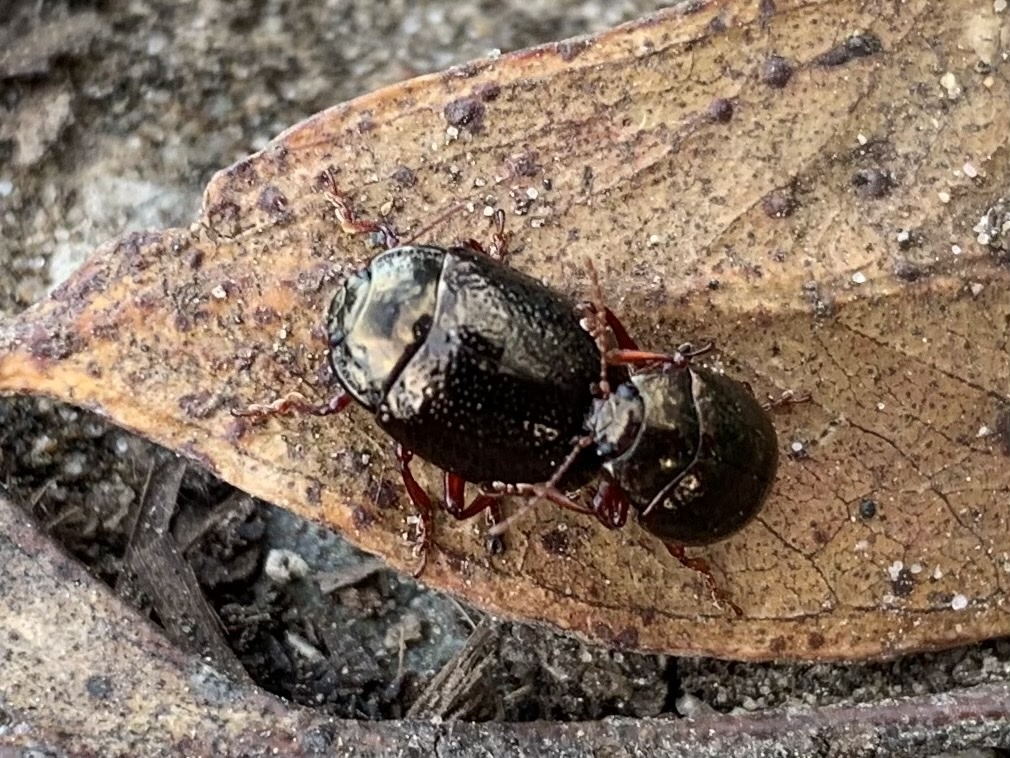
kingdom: Animalia
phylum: Arthropoda
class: Insecta
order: Coleoptera
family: Chrysomelidae
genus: Chrysolina
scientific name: Chrysolina bankii
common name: Leaf beetle
